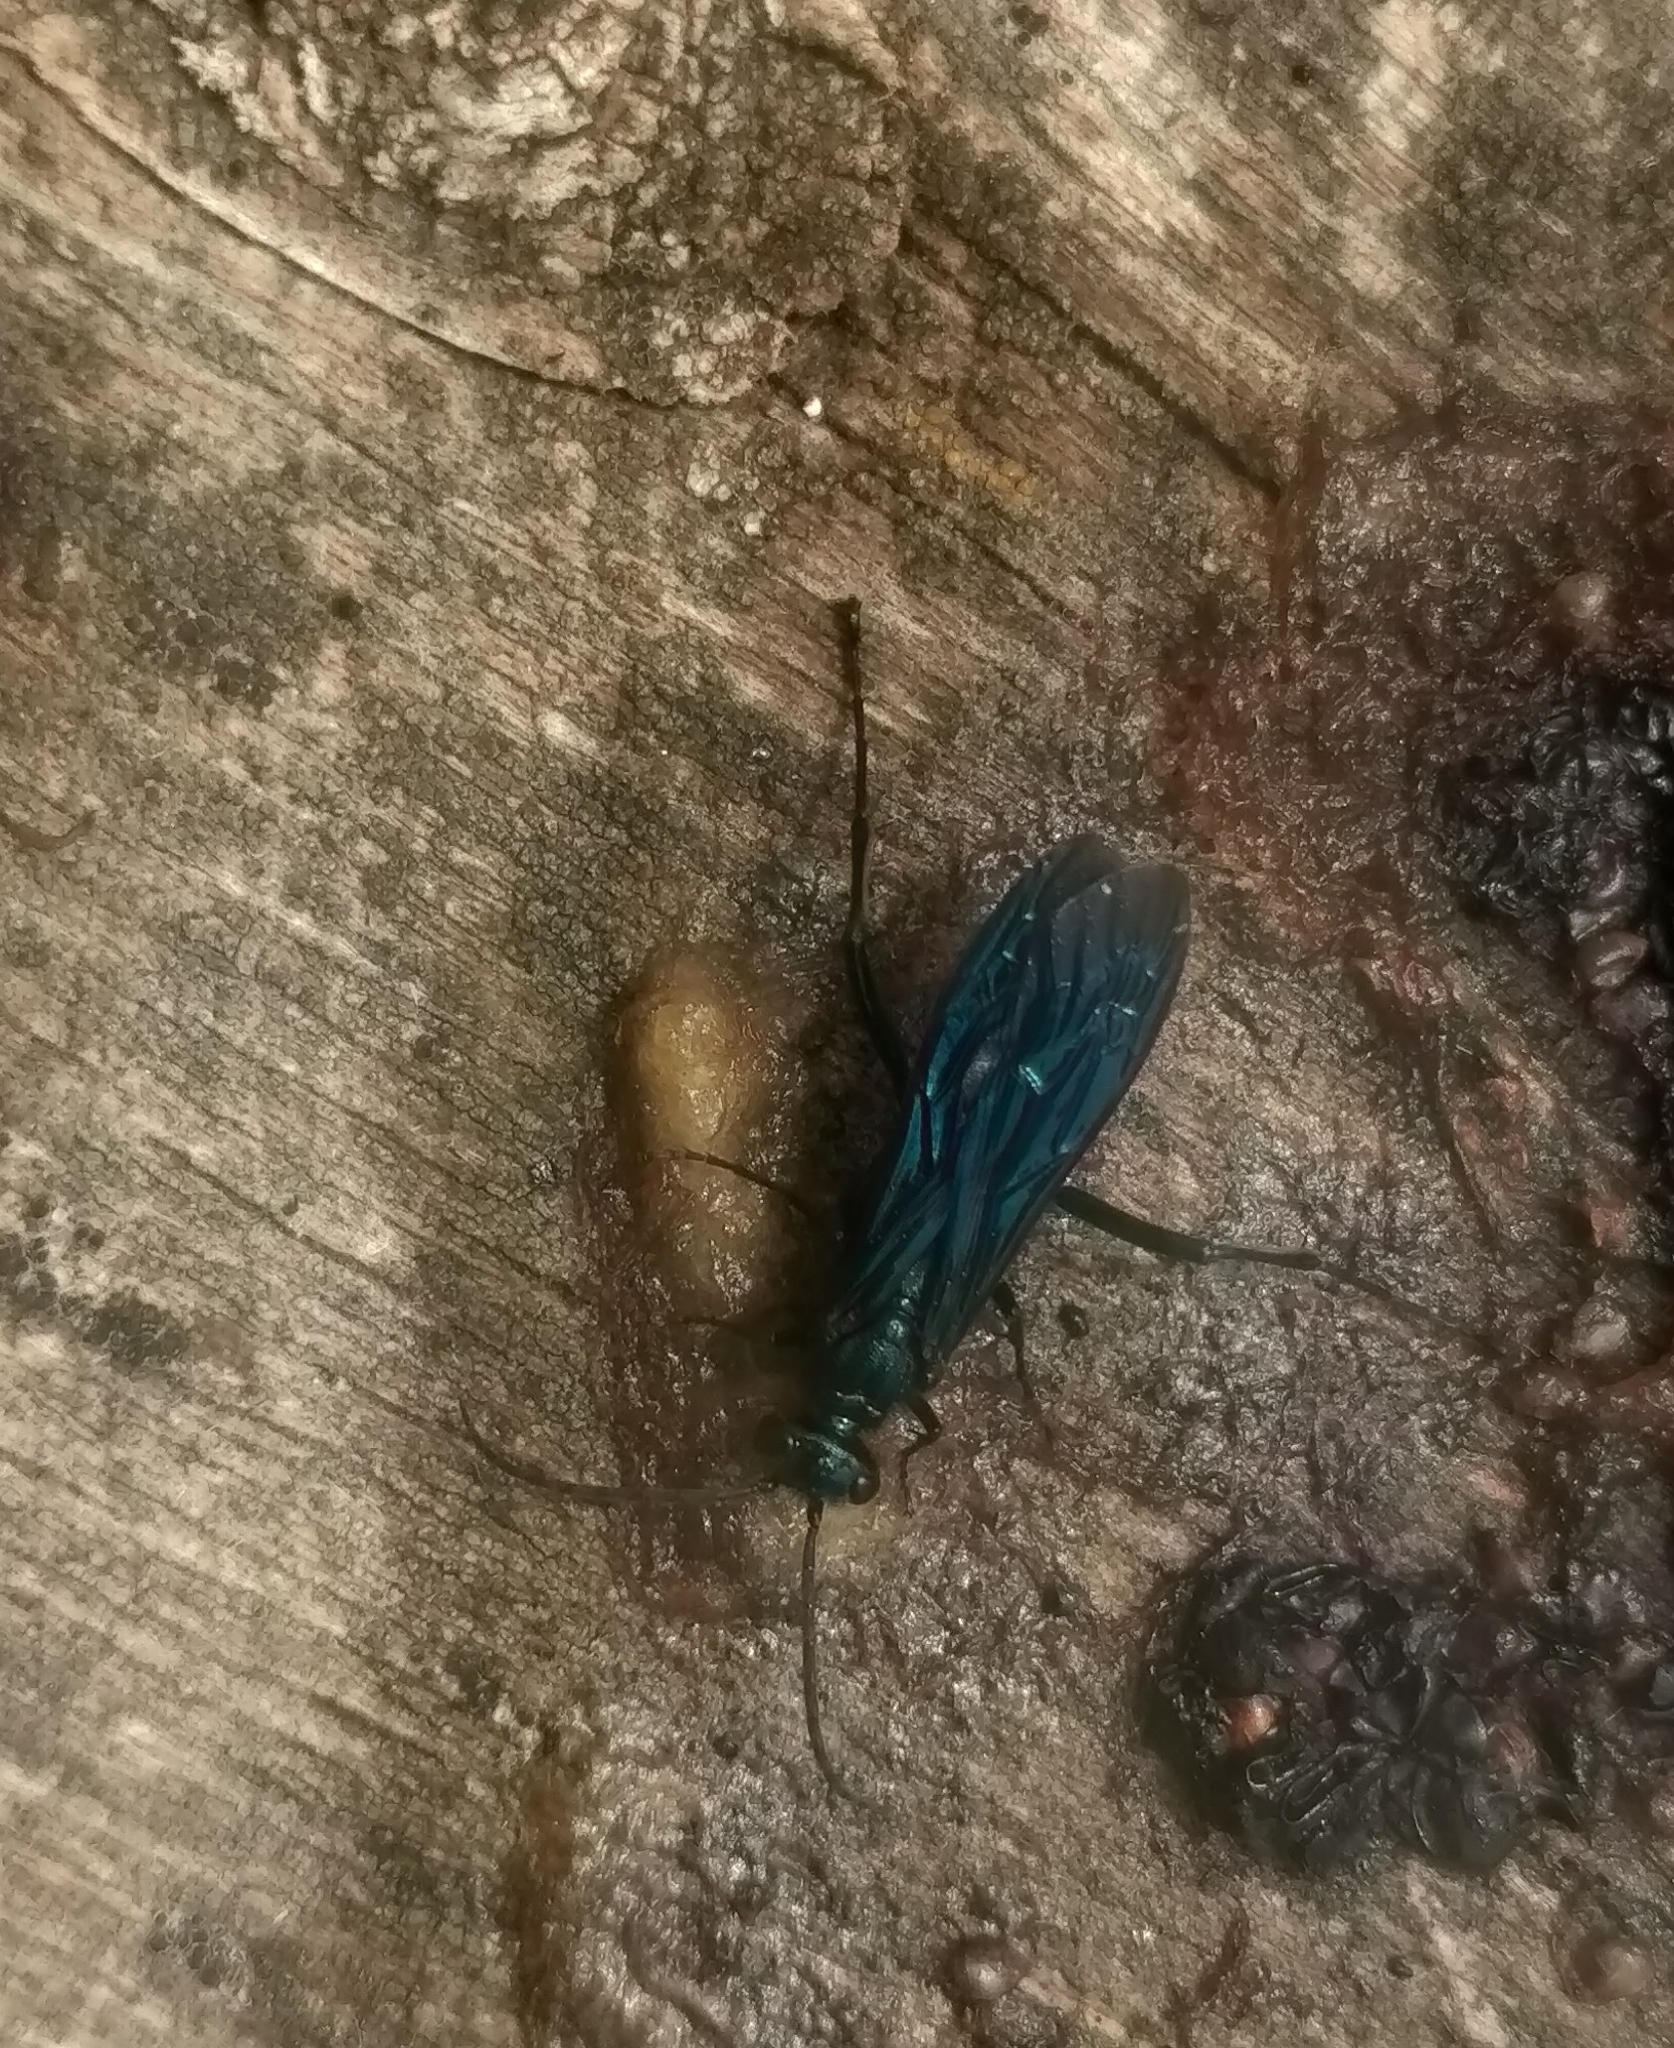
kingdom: Animalia
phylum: Arthropoda
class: Insecta
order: Hymenoptera
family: Sphecidae
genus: Chalybion
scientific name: Chalybion californicum
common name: Mud dauber
